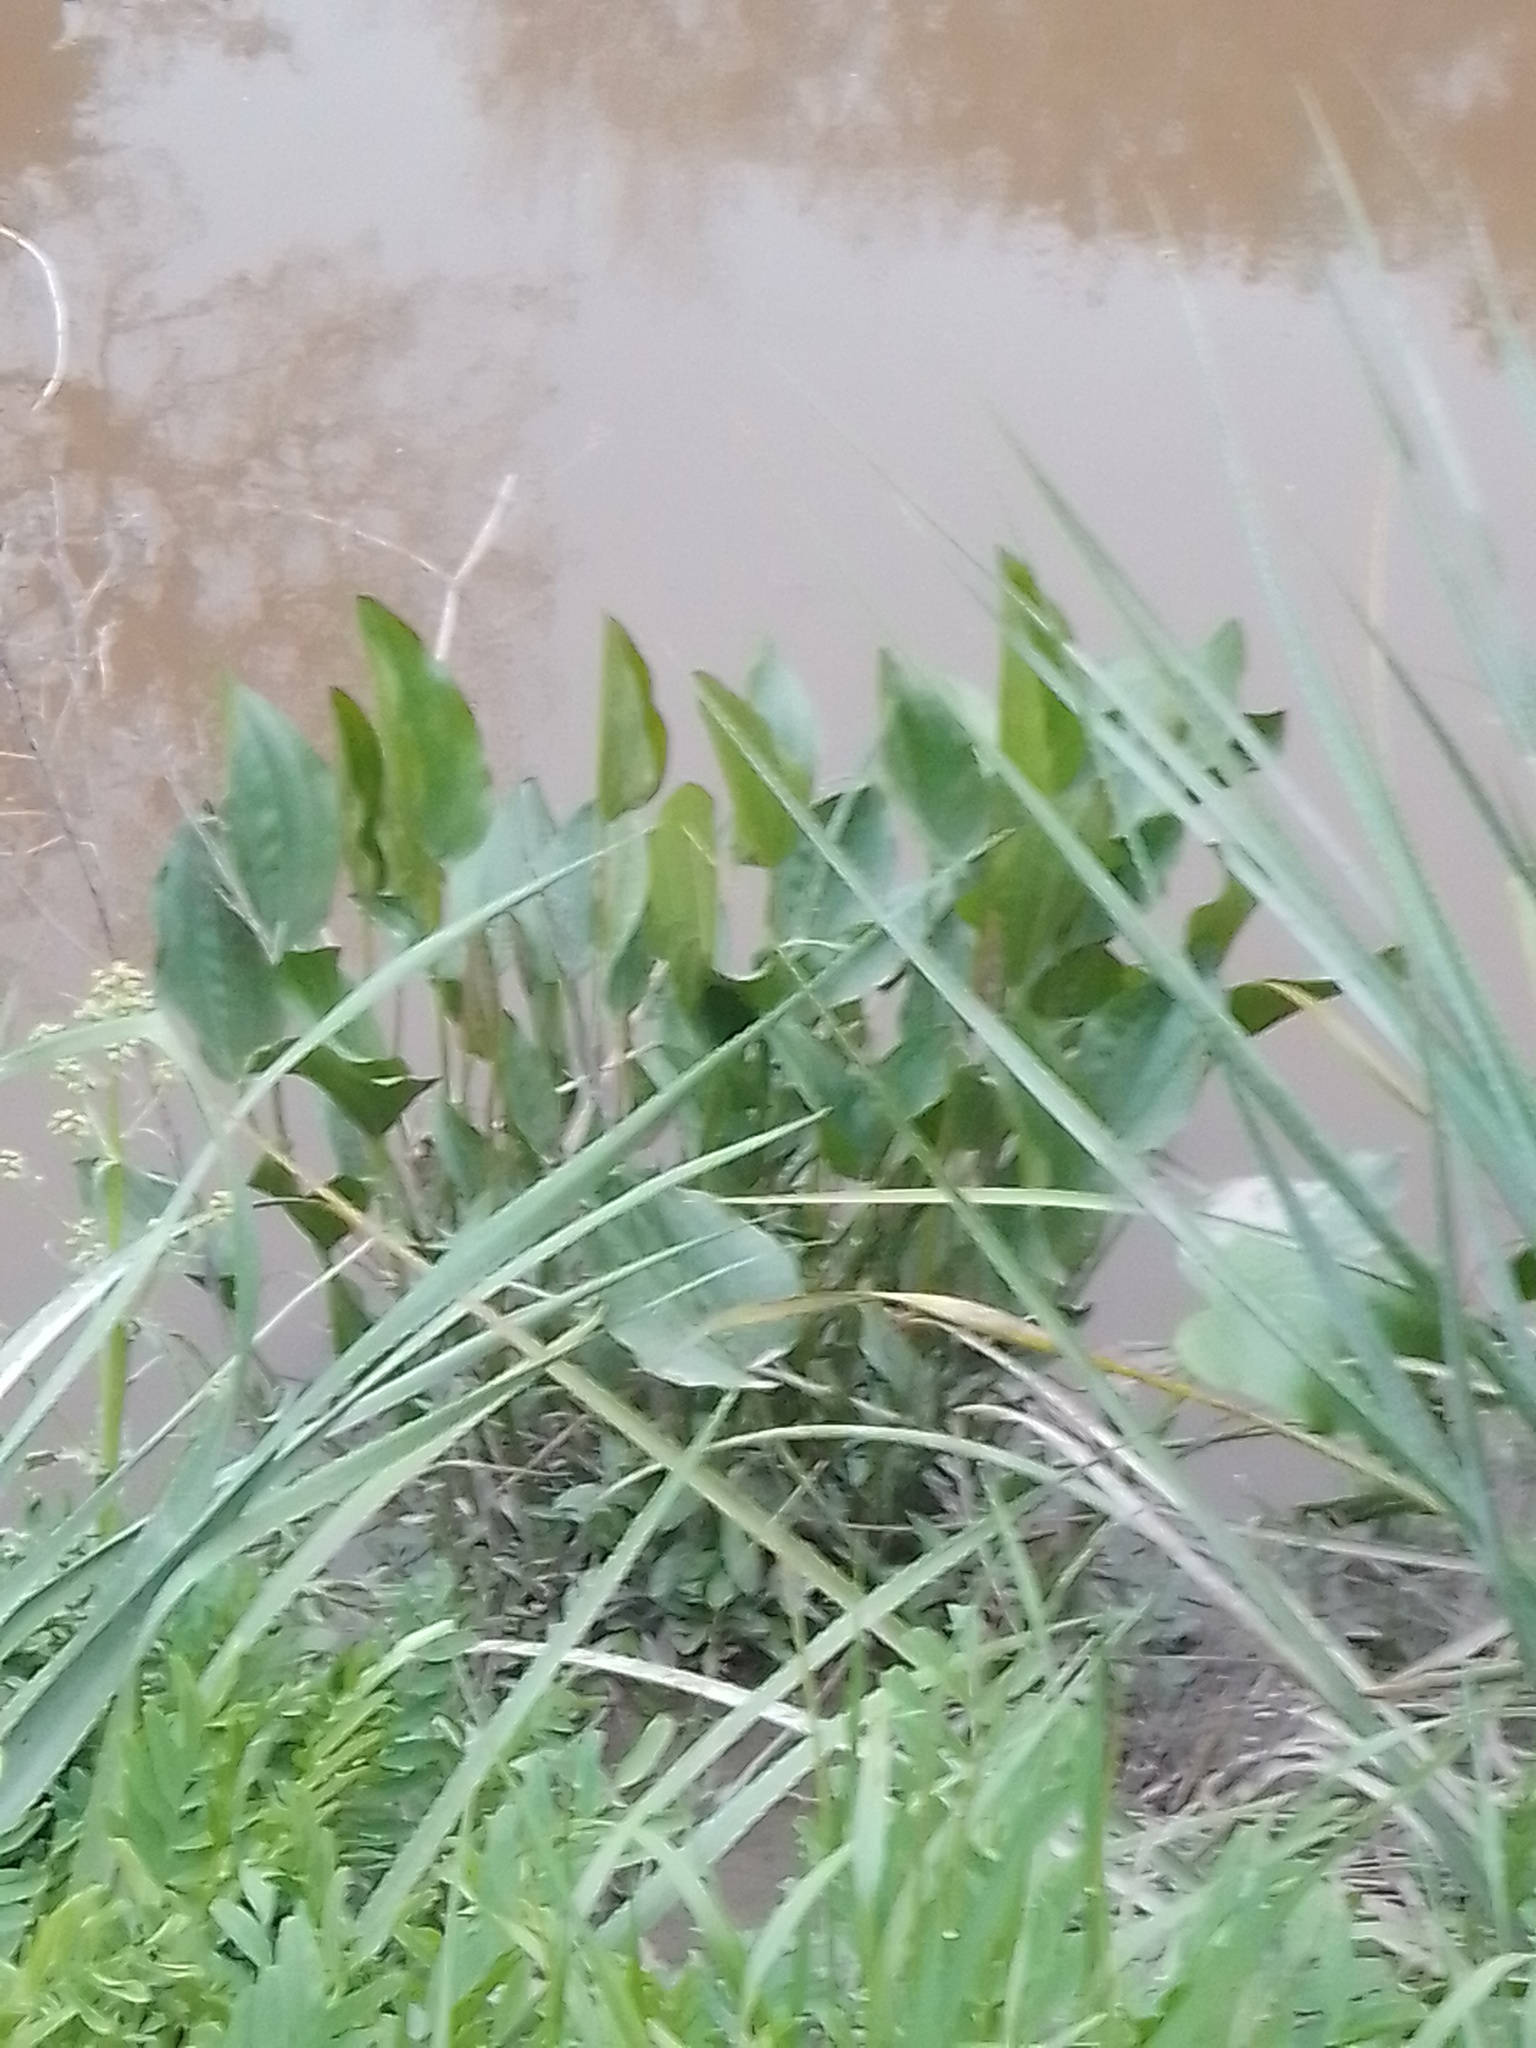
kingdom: Plantae
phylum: Tracheophyta
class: Liliopsida
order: Alismatales
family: Alismataceae
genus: Aquarius
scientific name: Aquarius grandiflorus
